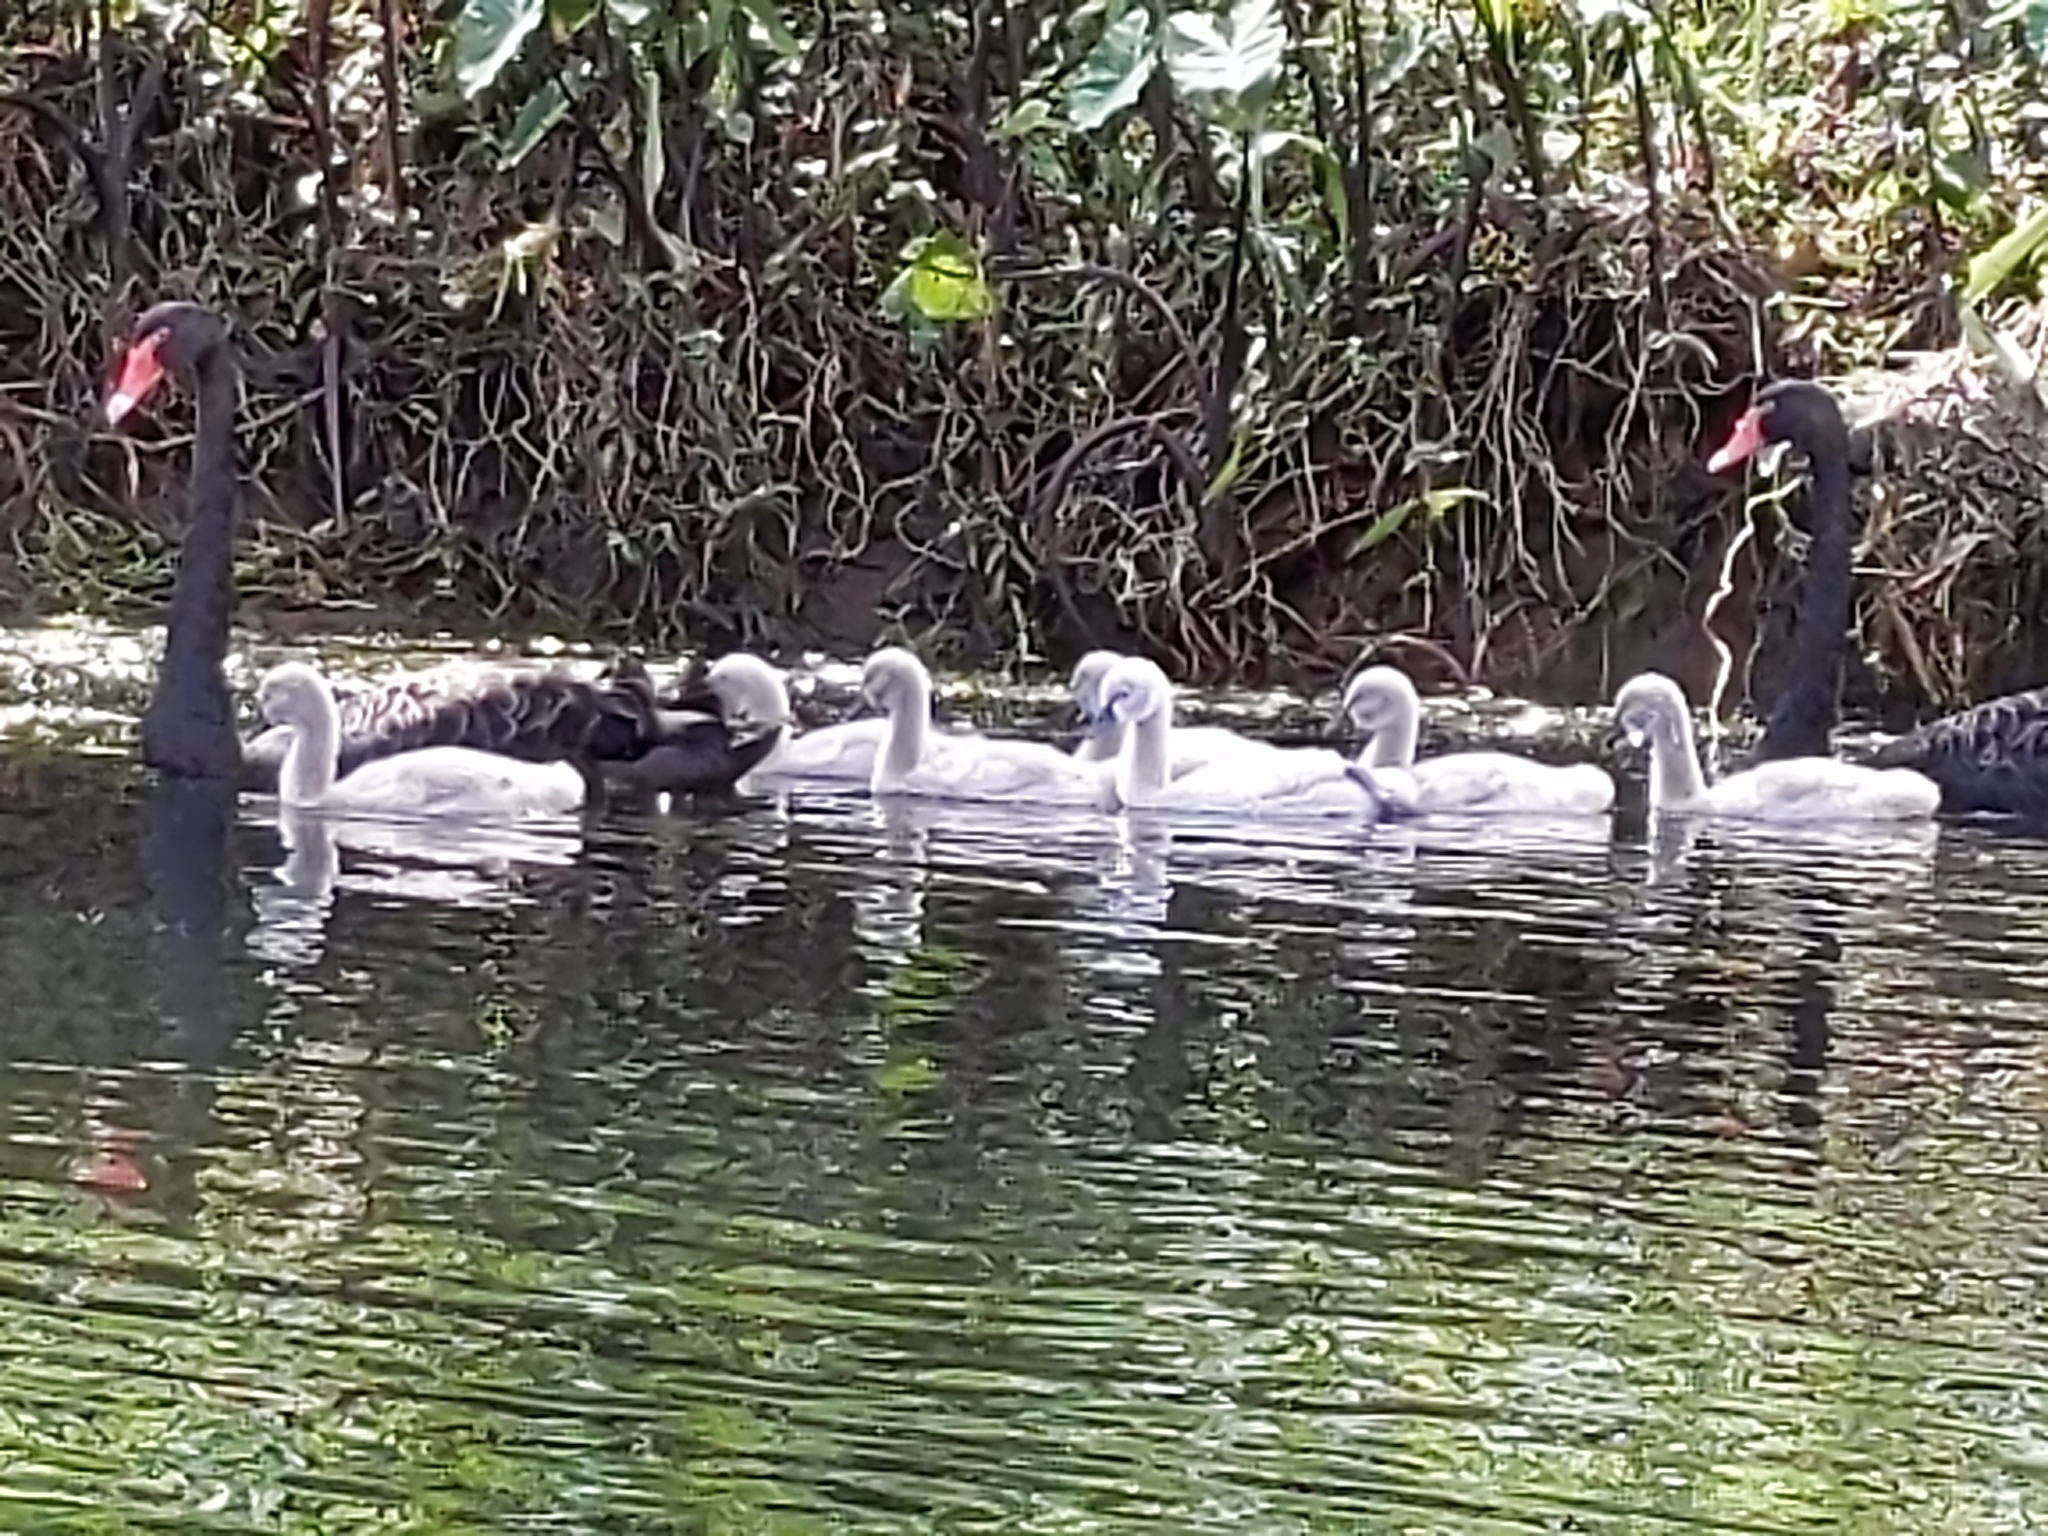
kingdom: Animalia
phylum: Chordata
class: Aves
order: Anseriformes
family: Anatidae
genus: Cygnus
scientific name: Cygnus atratus
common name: Black swan
